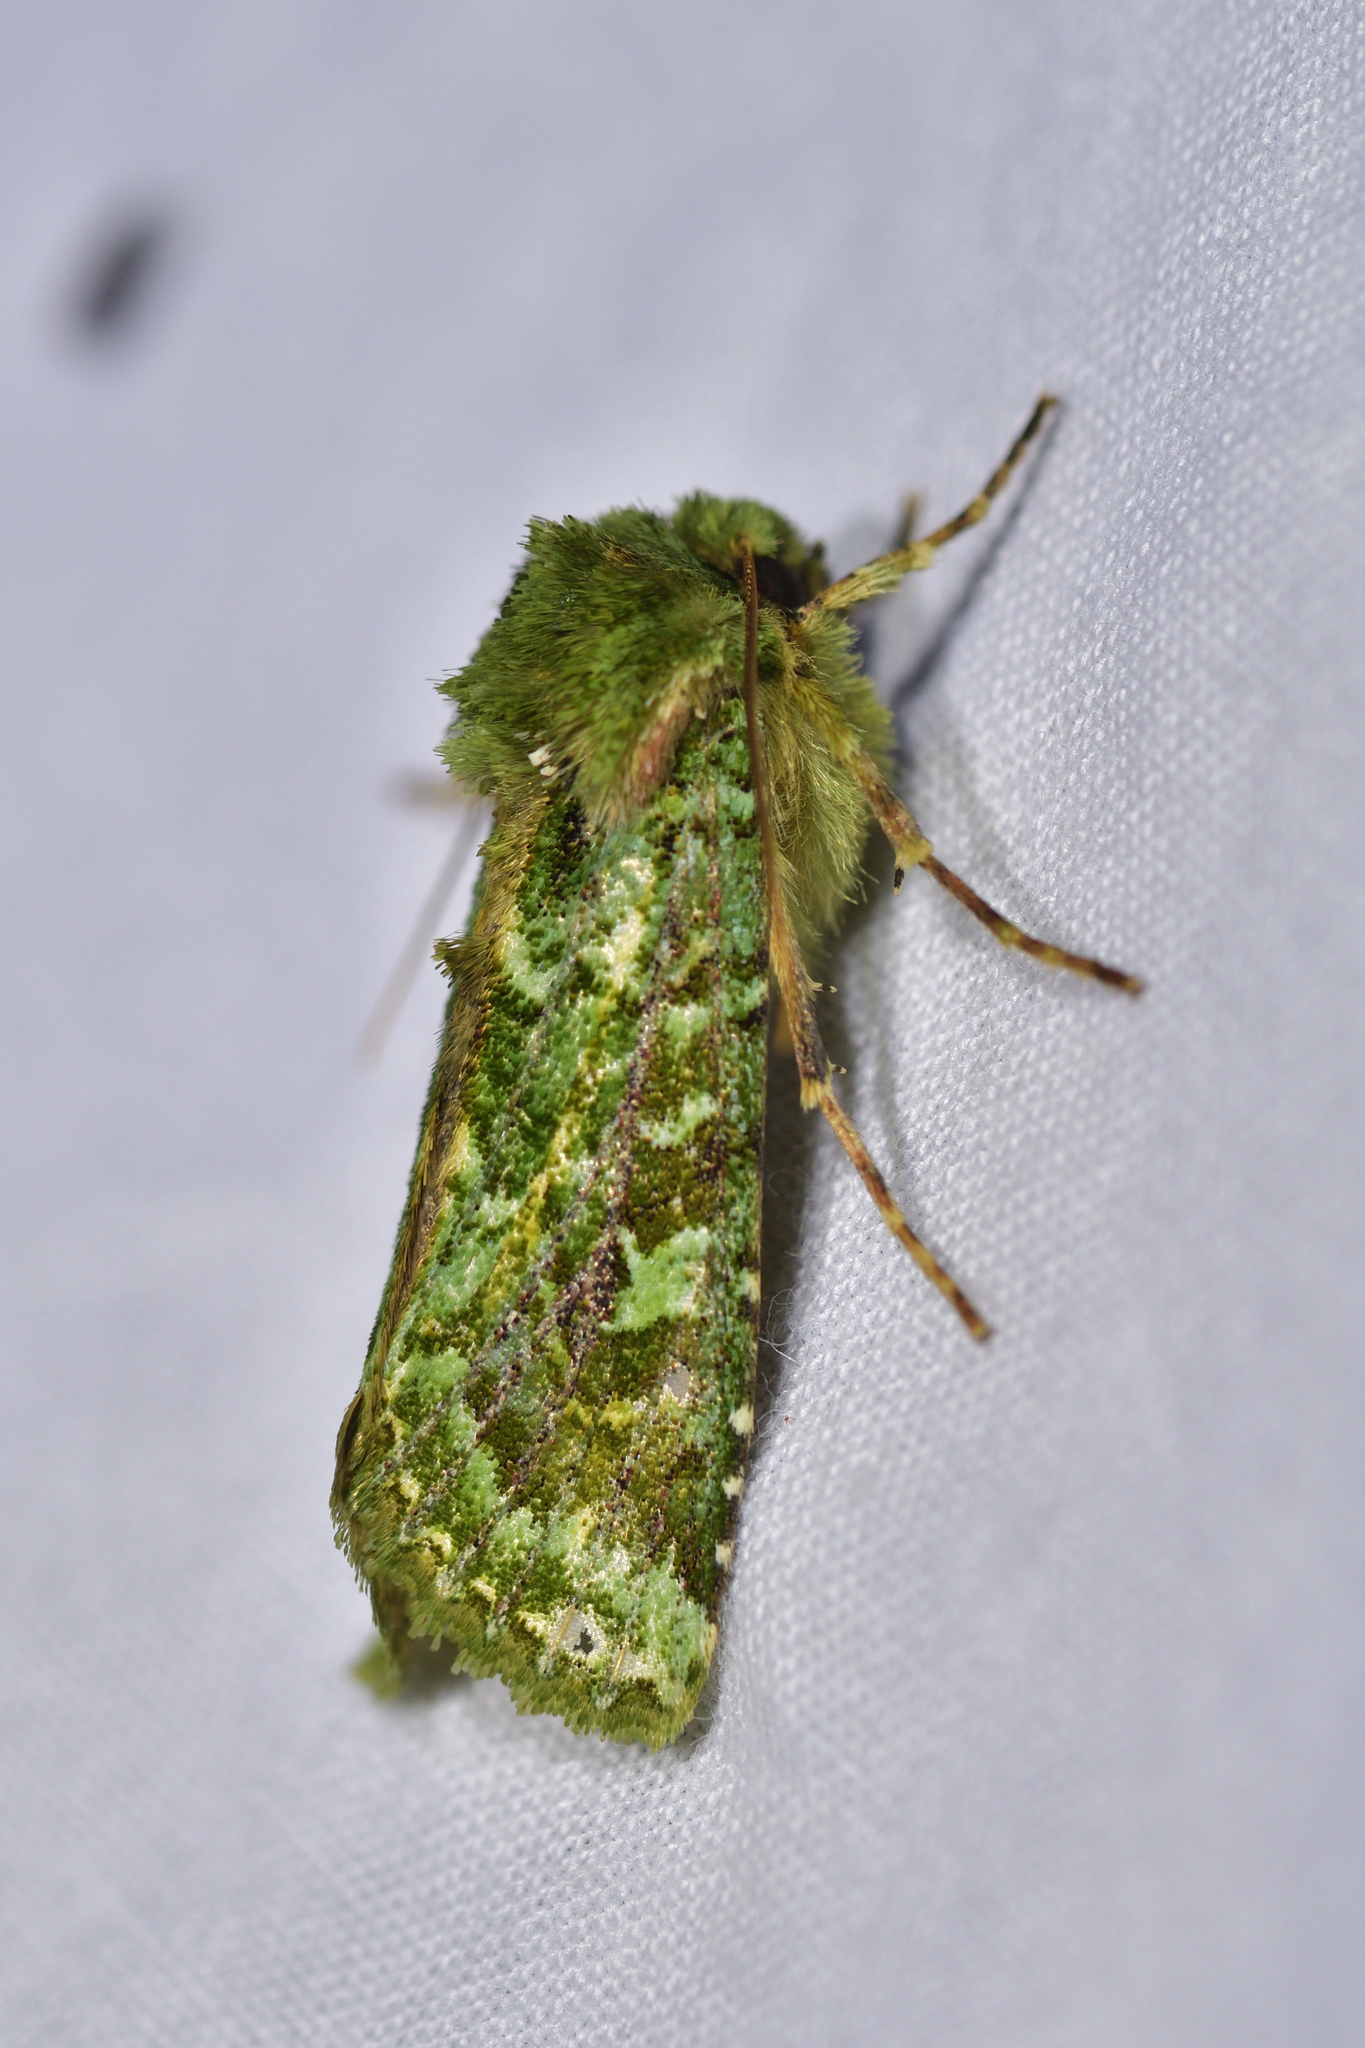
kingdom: Animalia
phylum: Arthropoda
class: Insecta
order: Lepidoptera
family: Noctuidae
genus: Feredayia
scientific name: Feredayia grammosa
